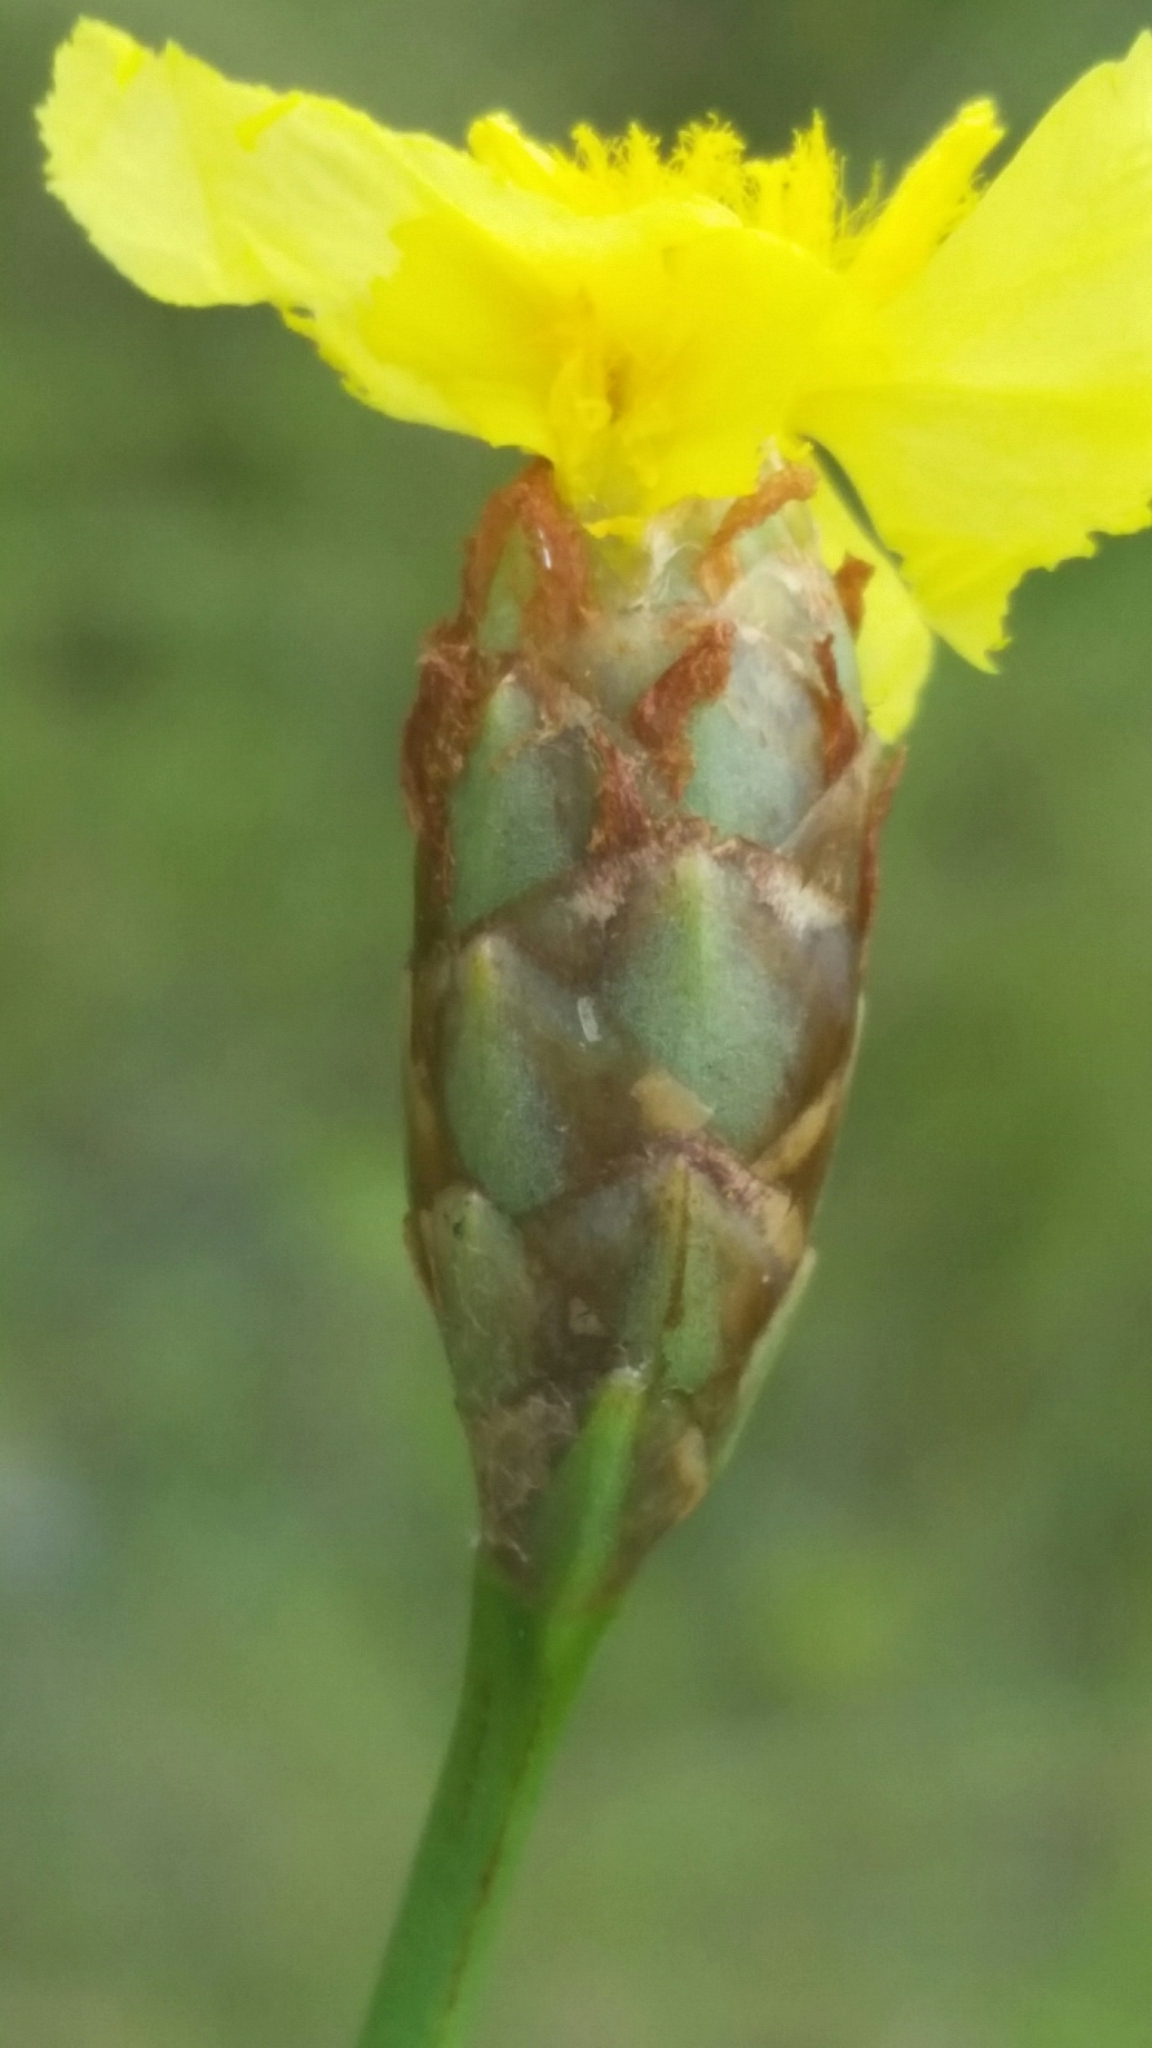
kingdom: Plantae
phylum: Tracheophyta
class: Liliopsida
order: Poales
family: Xyridaceae
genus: Xyris
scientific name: Xyris caroliniana
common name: Carolina yellow-eyed-grass
